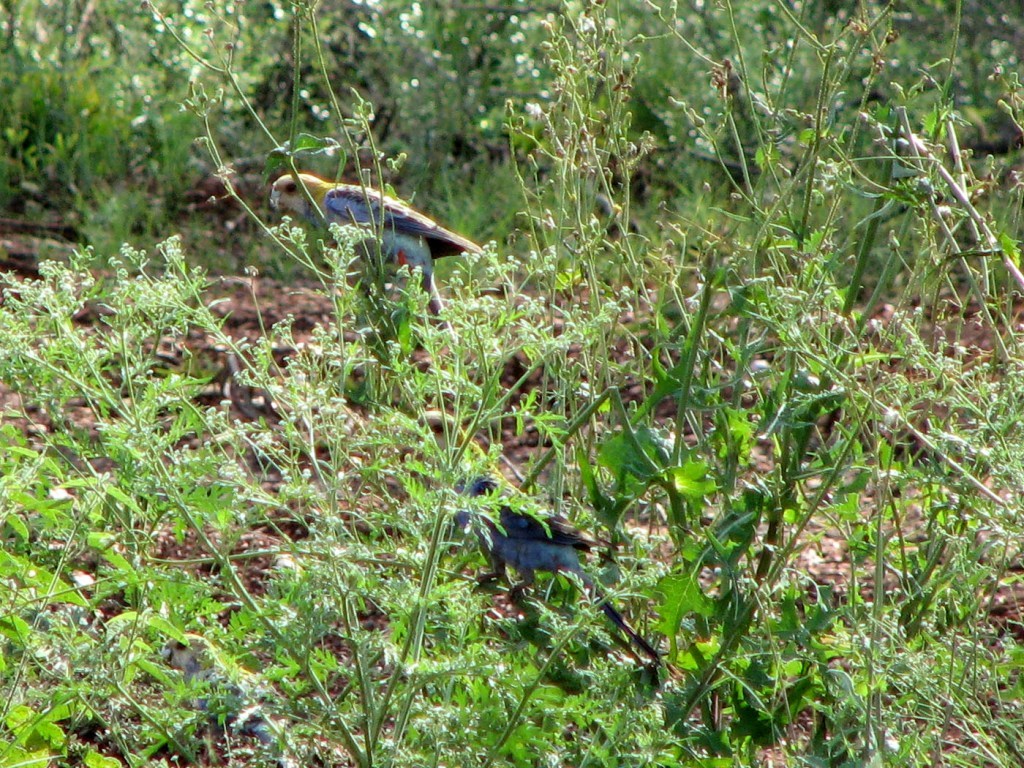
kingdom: Animalia
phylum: Chordata
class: Aves
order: Psittaciformes
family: Psittacidae
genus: Platycercus
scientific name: Platycercus adscitus
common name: Pale-headed rosella
